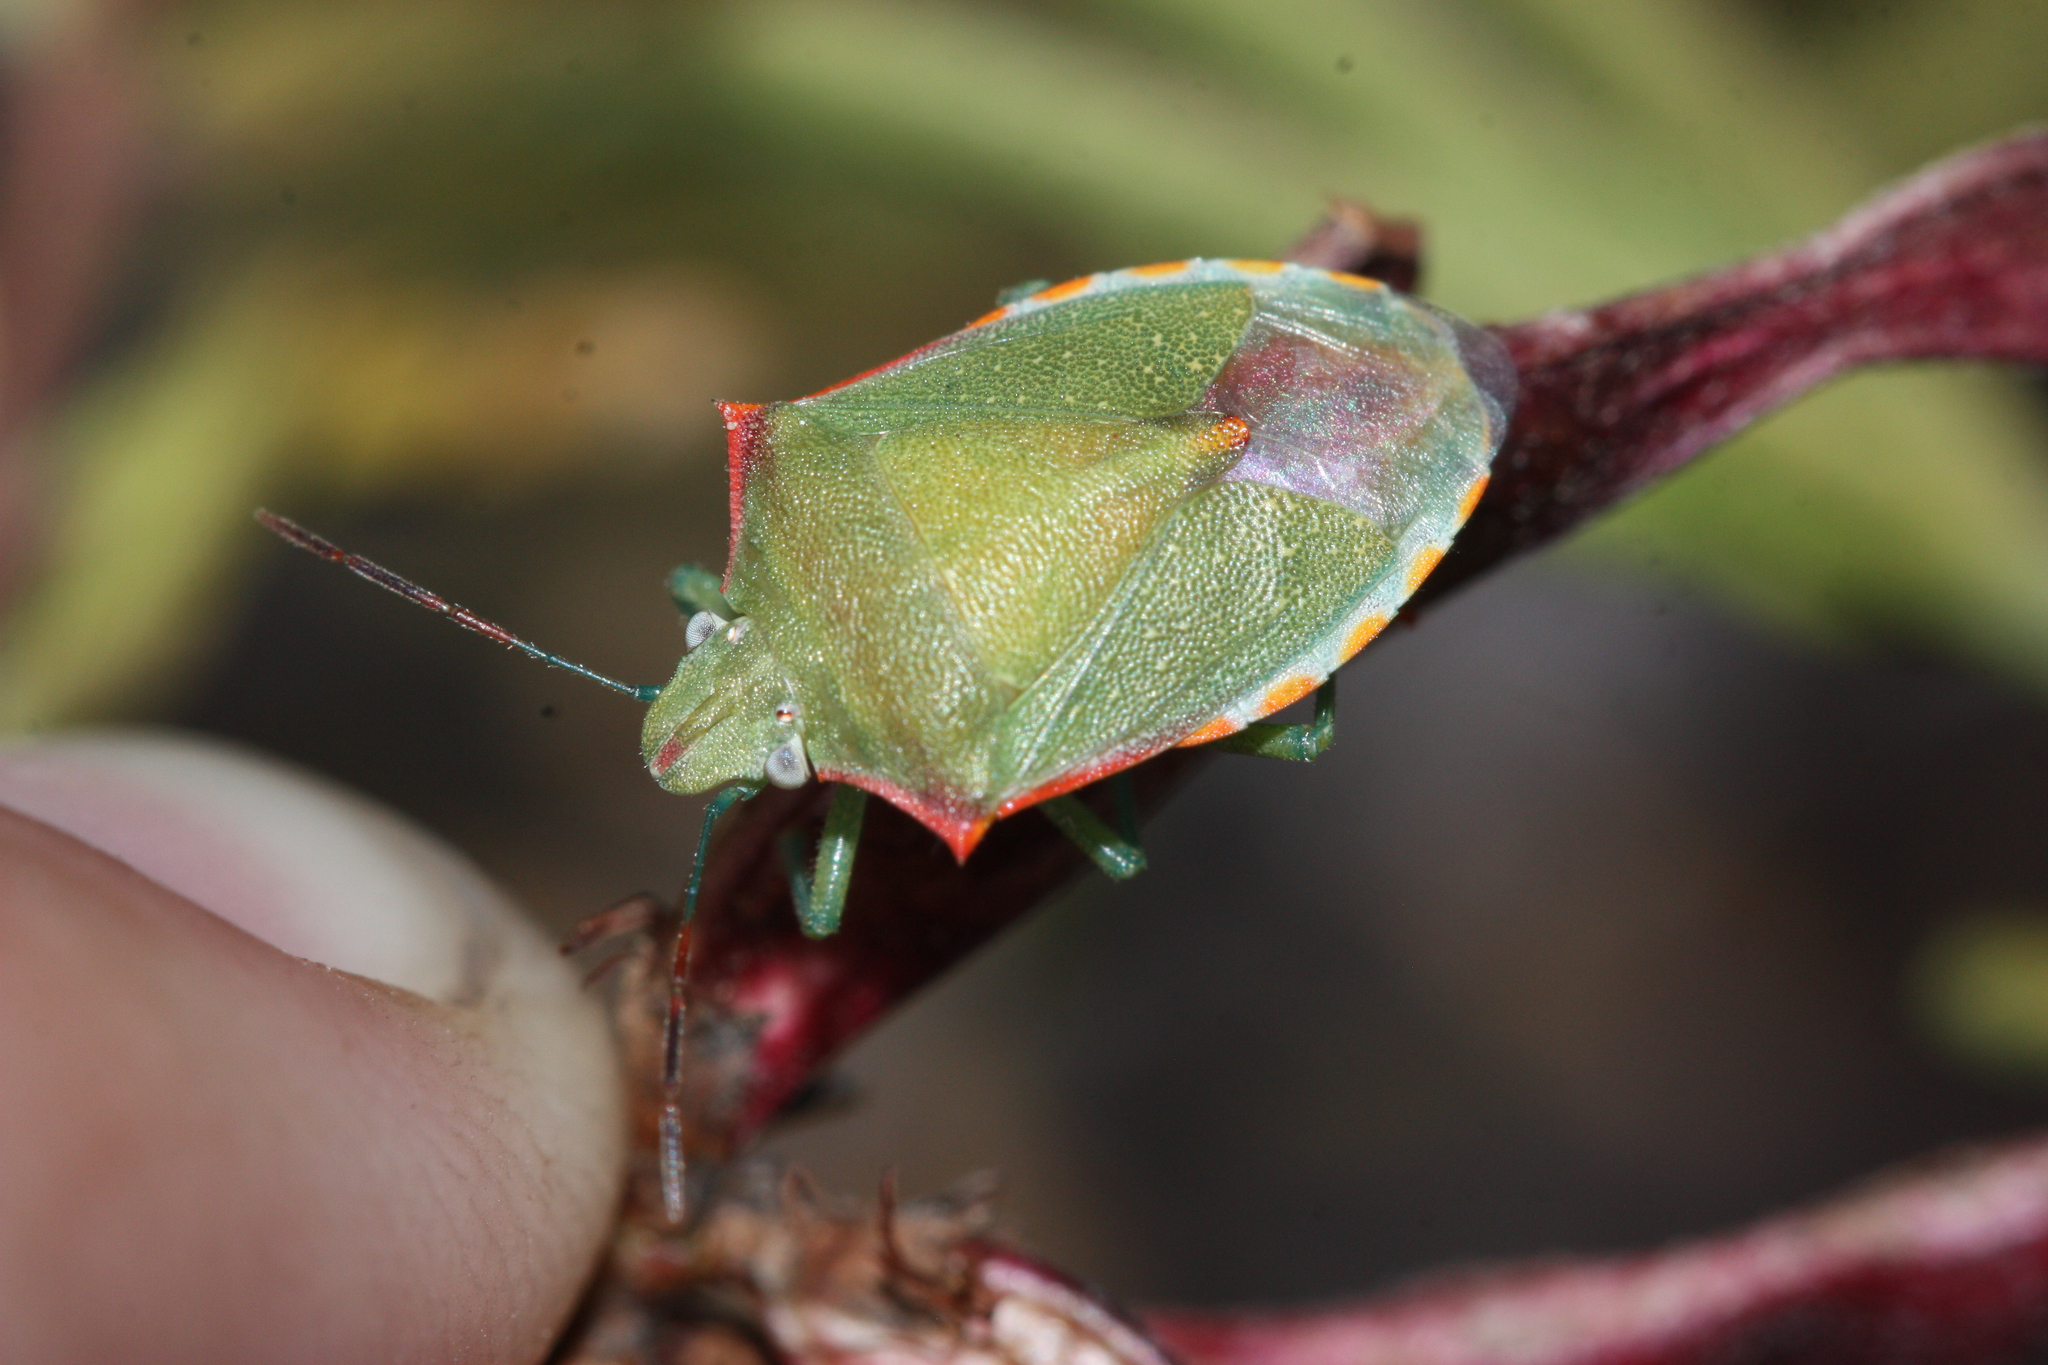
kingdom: Animalia
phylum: Arthropoda
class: Insecta
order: Hemiptera
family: Pentatomidae
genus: Thyanta
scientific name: Thyanta accerra
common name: Stink bug
